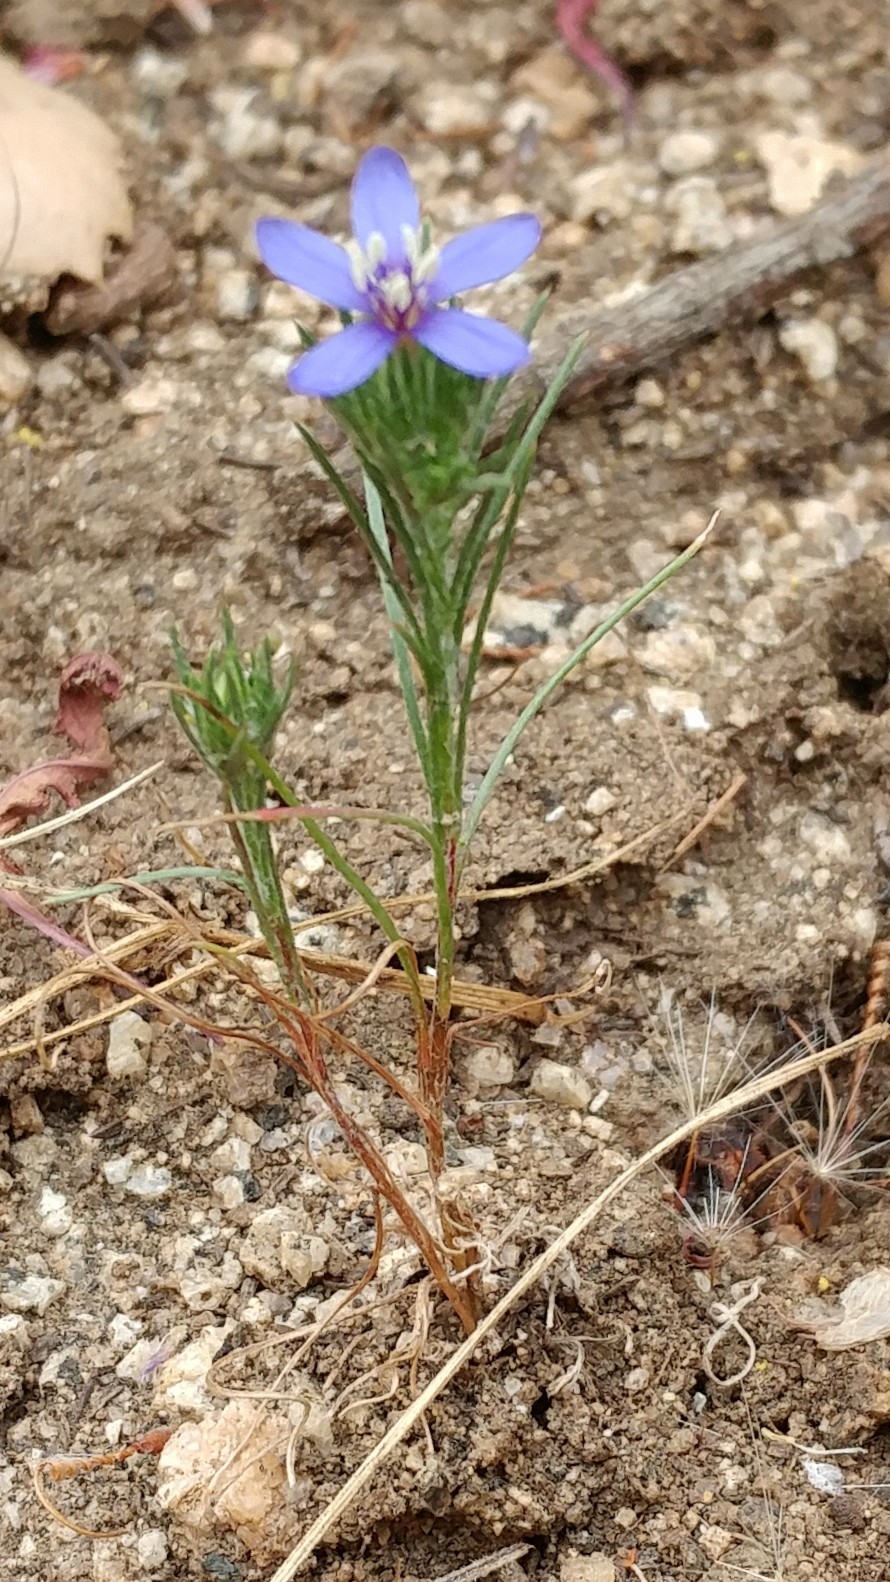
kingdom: Plantae
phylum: Tracheophyta
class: Magnoliopsida
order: Ericales
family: Polemoniaceae
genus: Eriastrum
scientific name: Eriastrum sapphirinum
